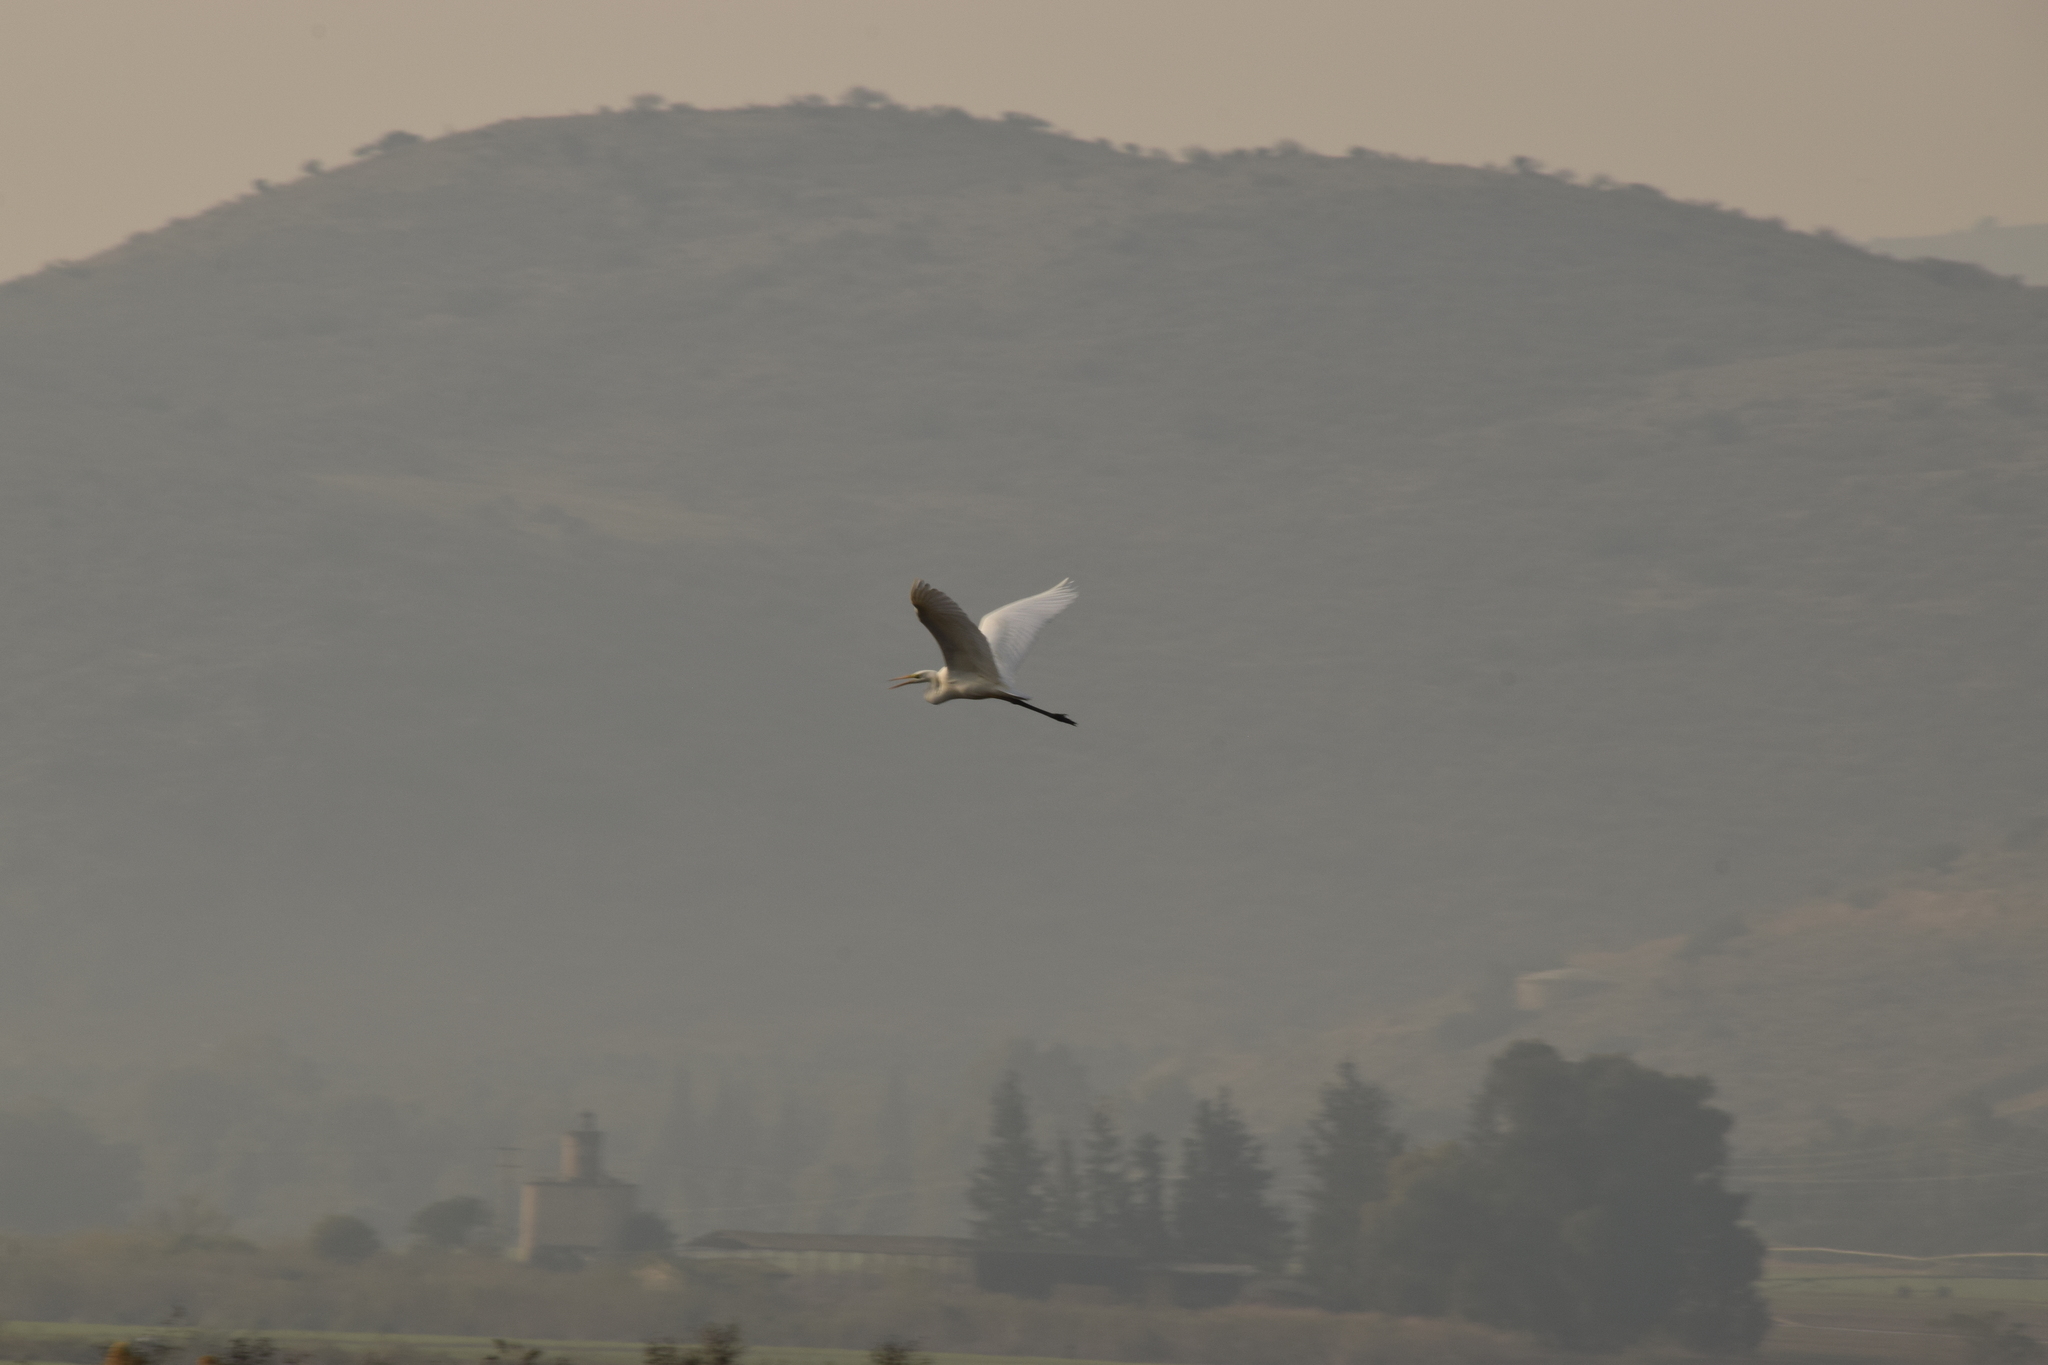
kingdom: Animalia
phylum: Chordata
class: Aves
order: Pelecaniformes
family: Ardeidae
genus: Ardea
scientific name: Ardea alba
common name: Great egret
